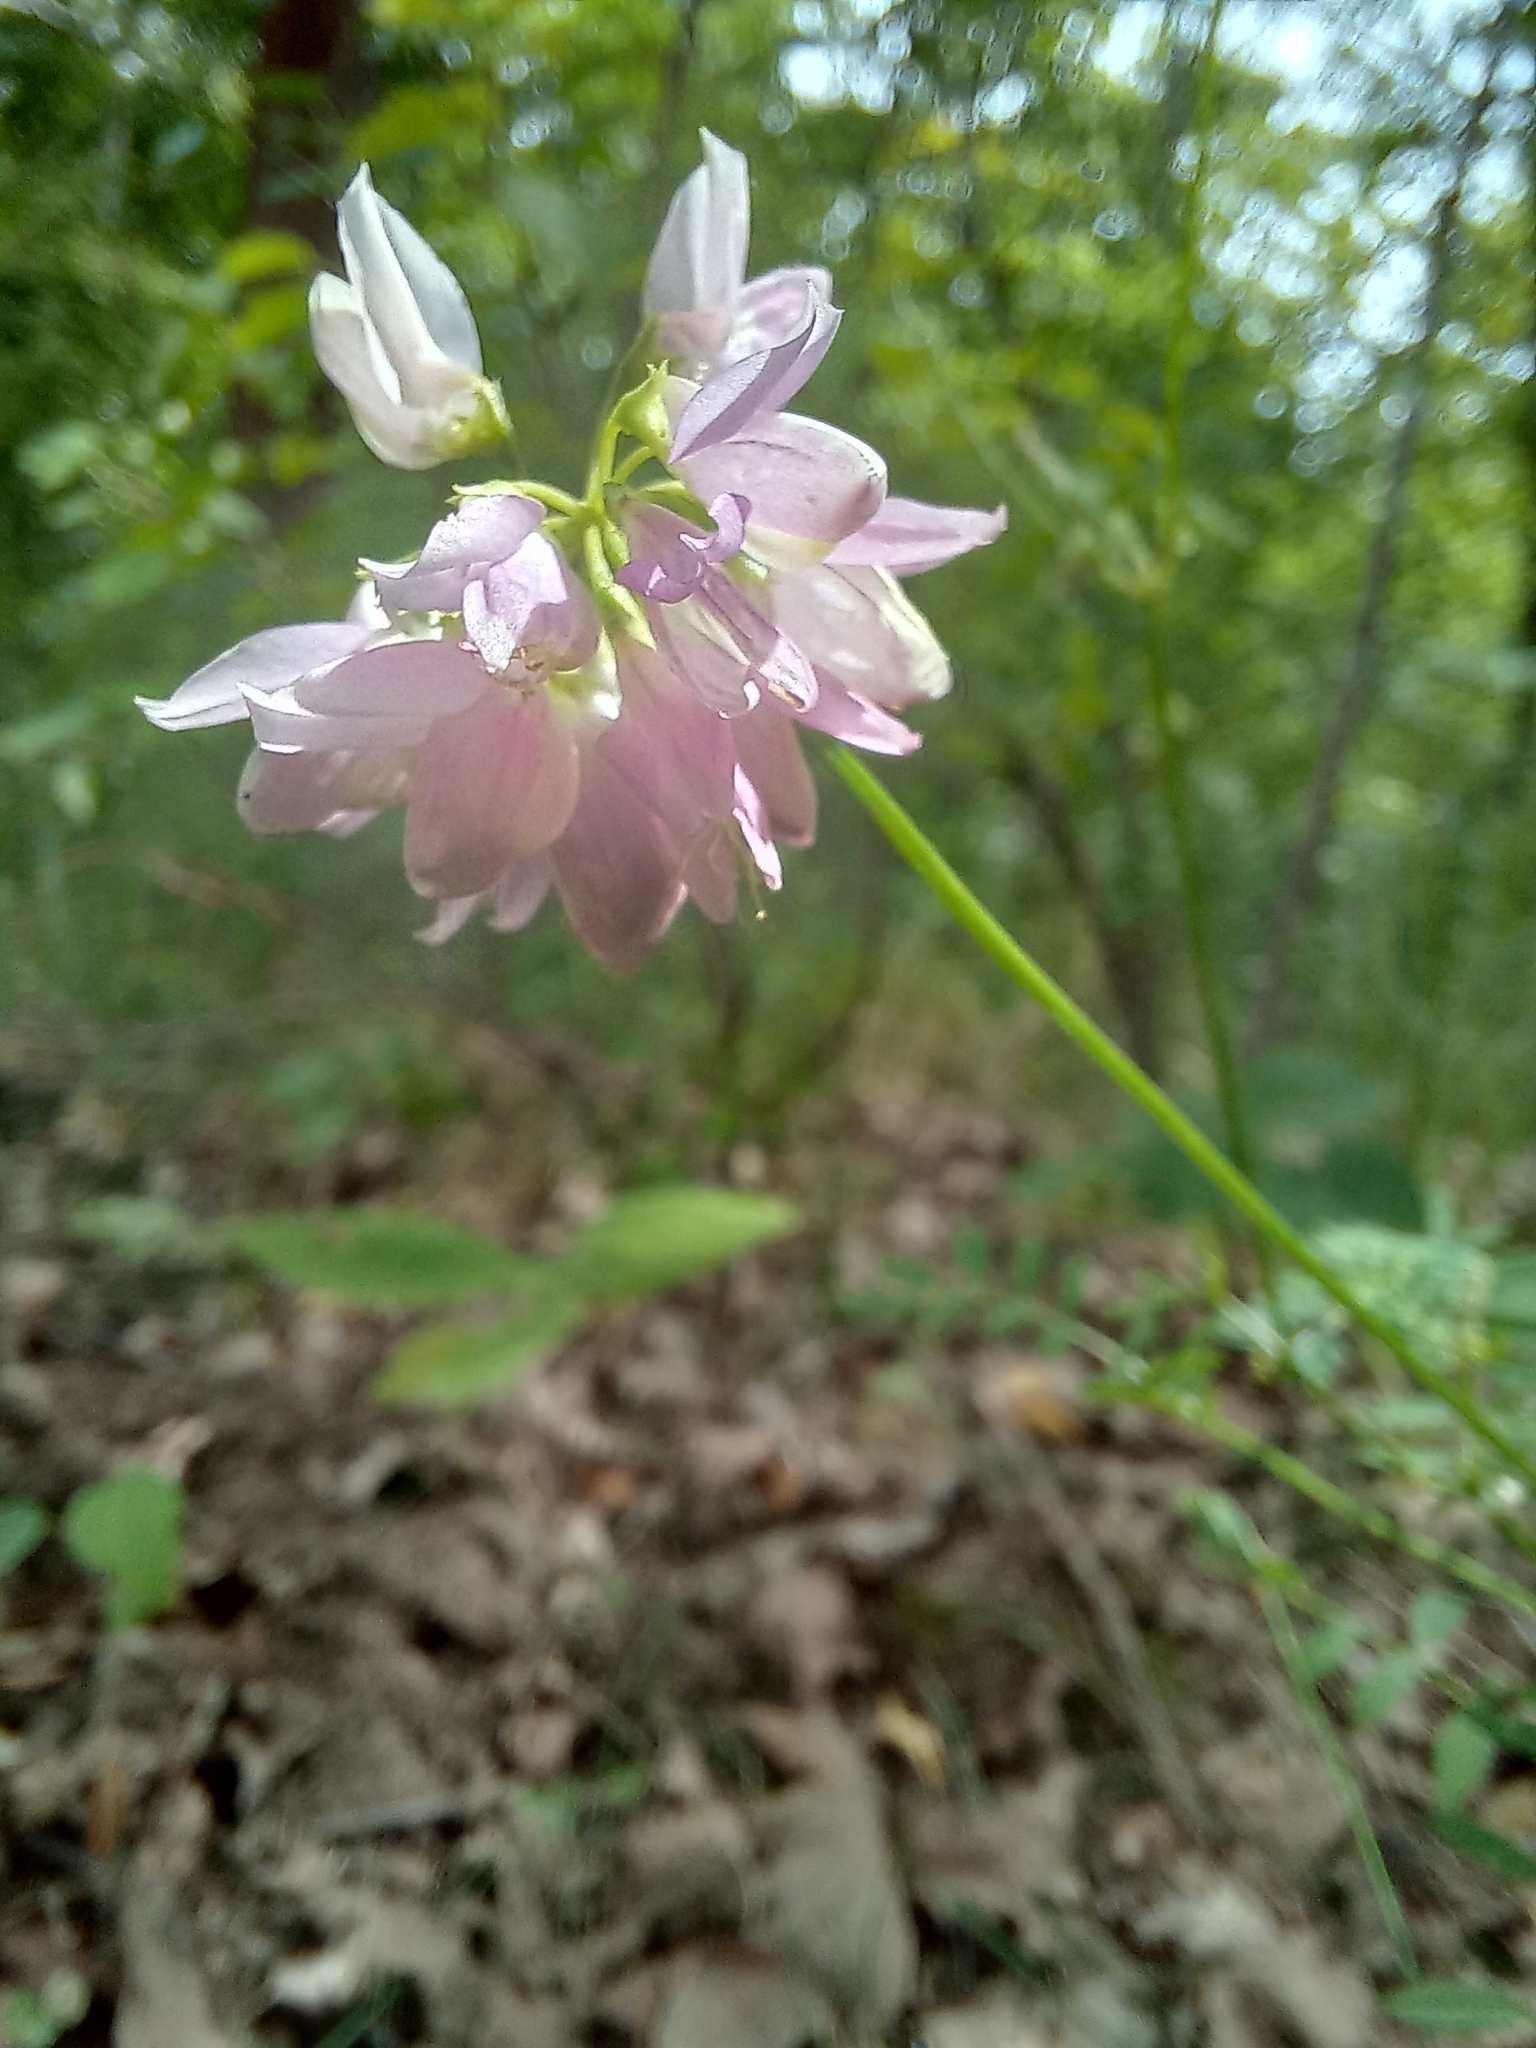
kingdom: Plantae
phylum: Tracheophyta
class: Magnoliopsida
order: Fabales
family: Fabaceae
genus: Coronilla
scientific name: Coronilla varia
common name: Crownvetch
